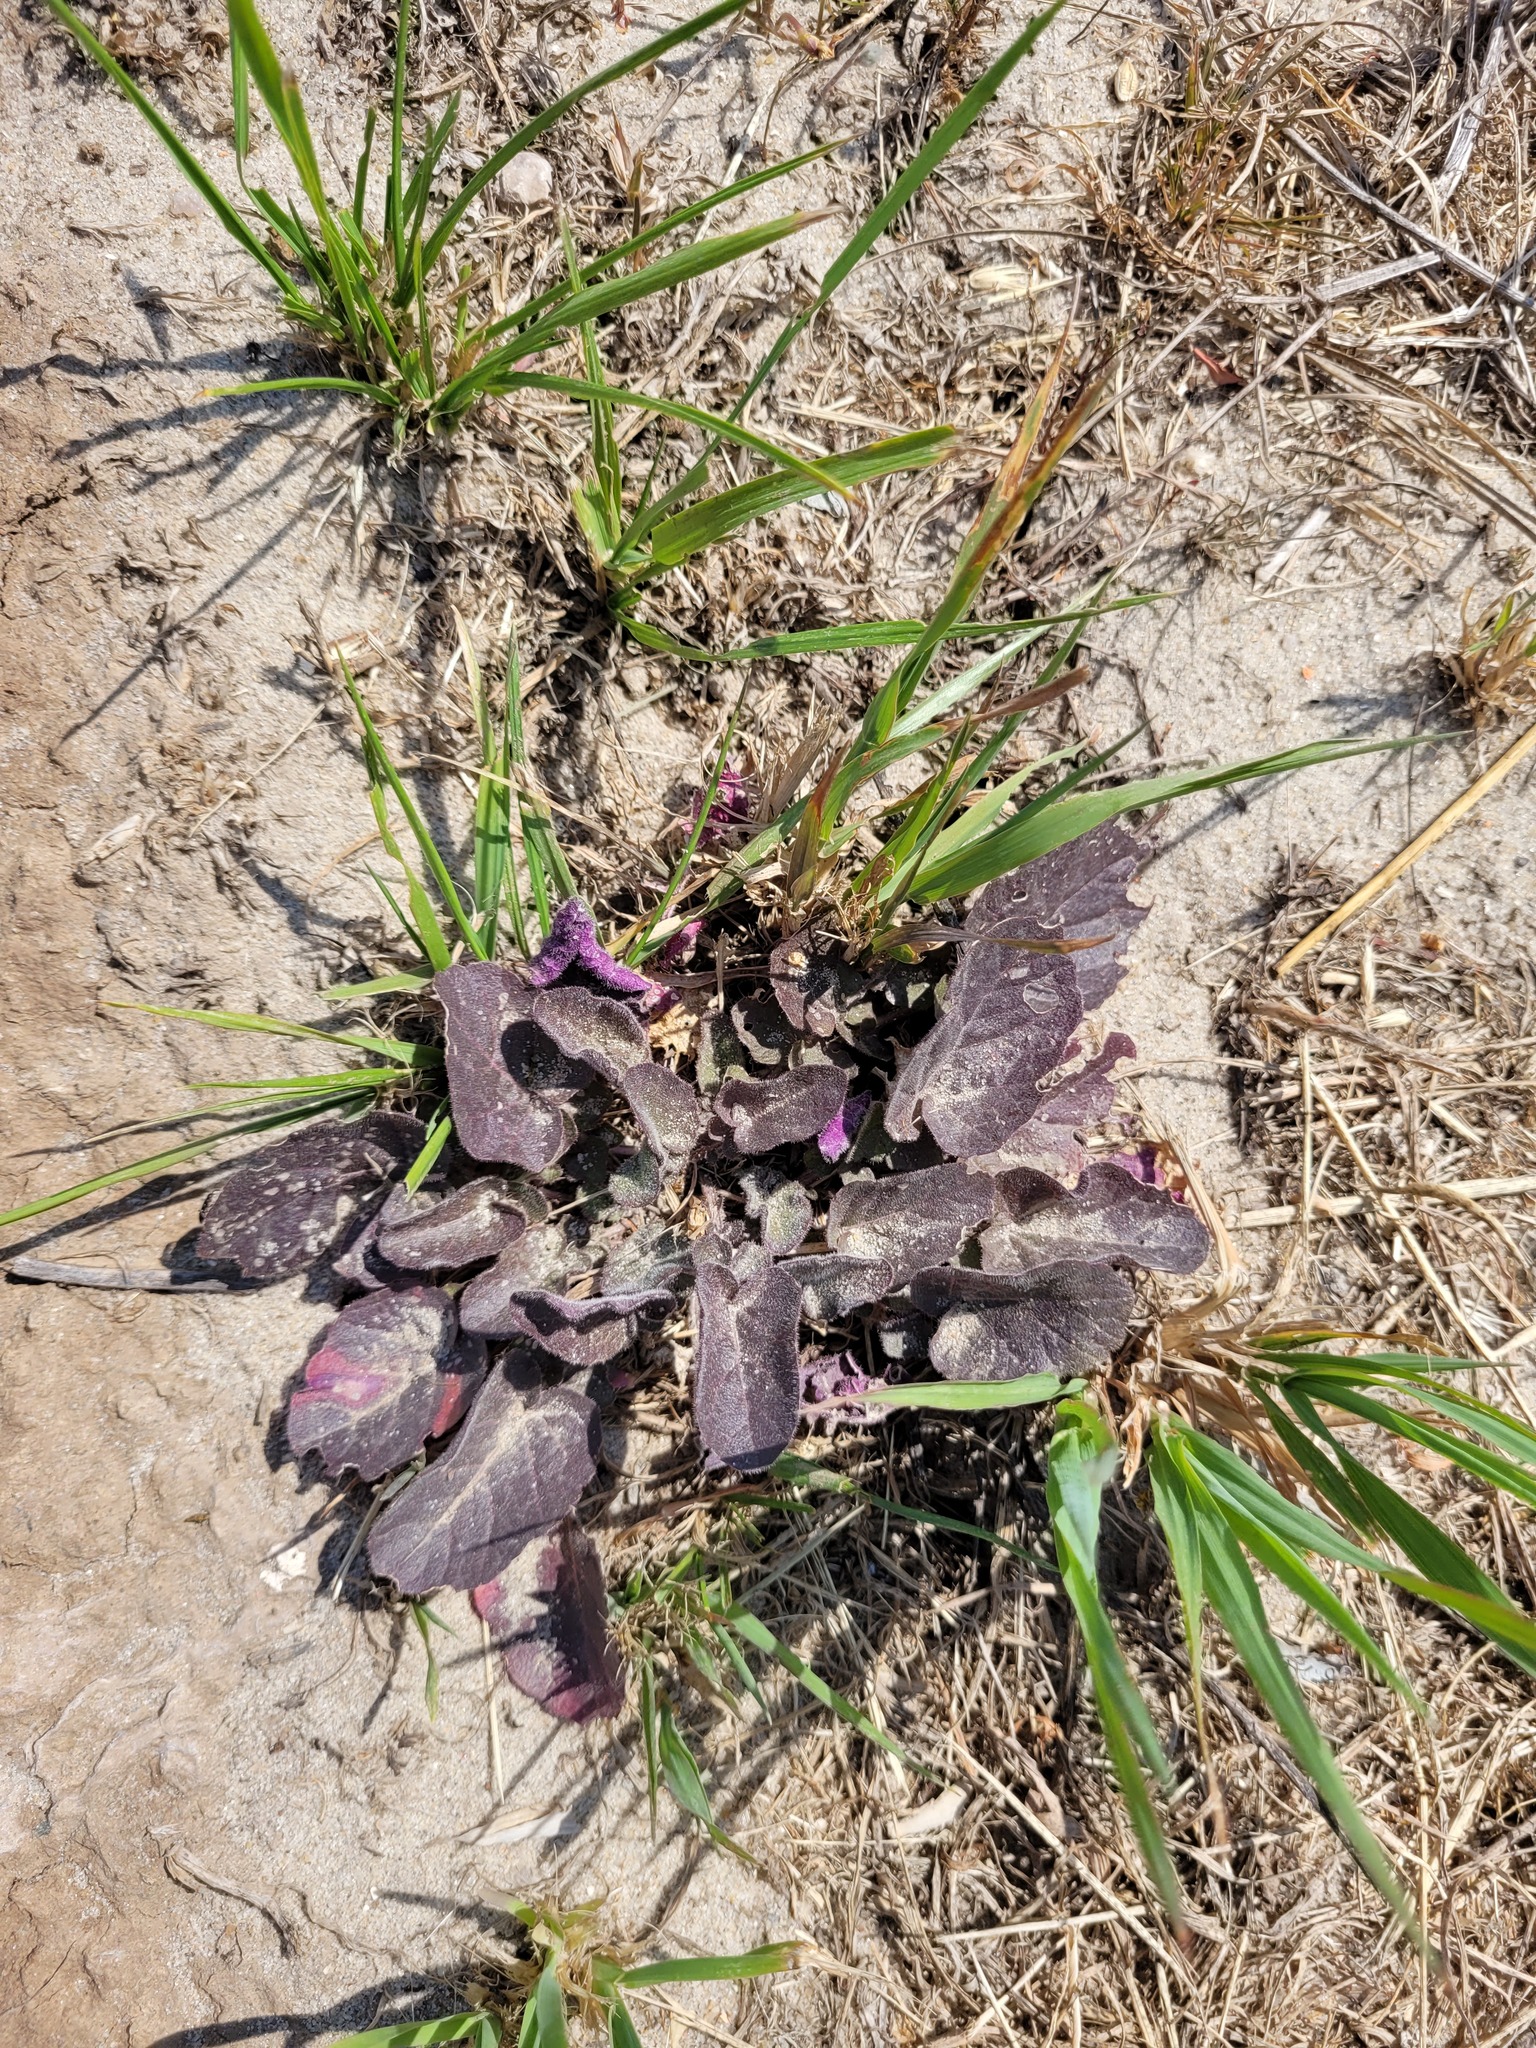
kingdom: Plantae
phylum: Tracheophyta
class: Magnoliopsida
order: Brassicales
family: Brassicaceae
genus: Barbarea
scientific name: Barbarea vulgaris
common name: Cressy-greens
